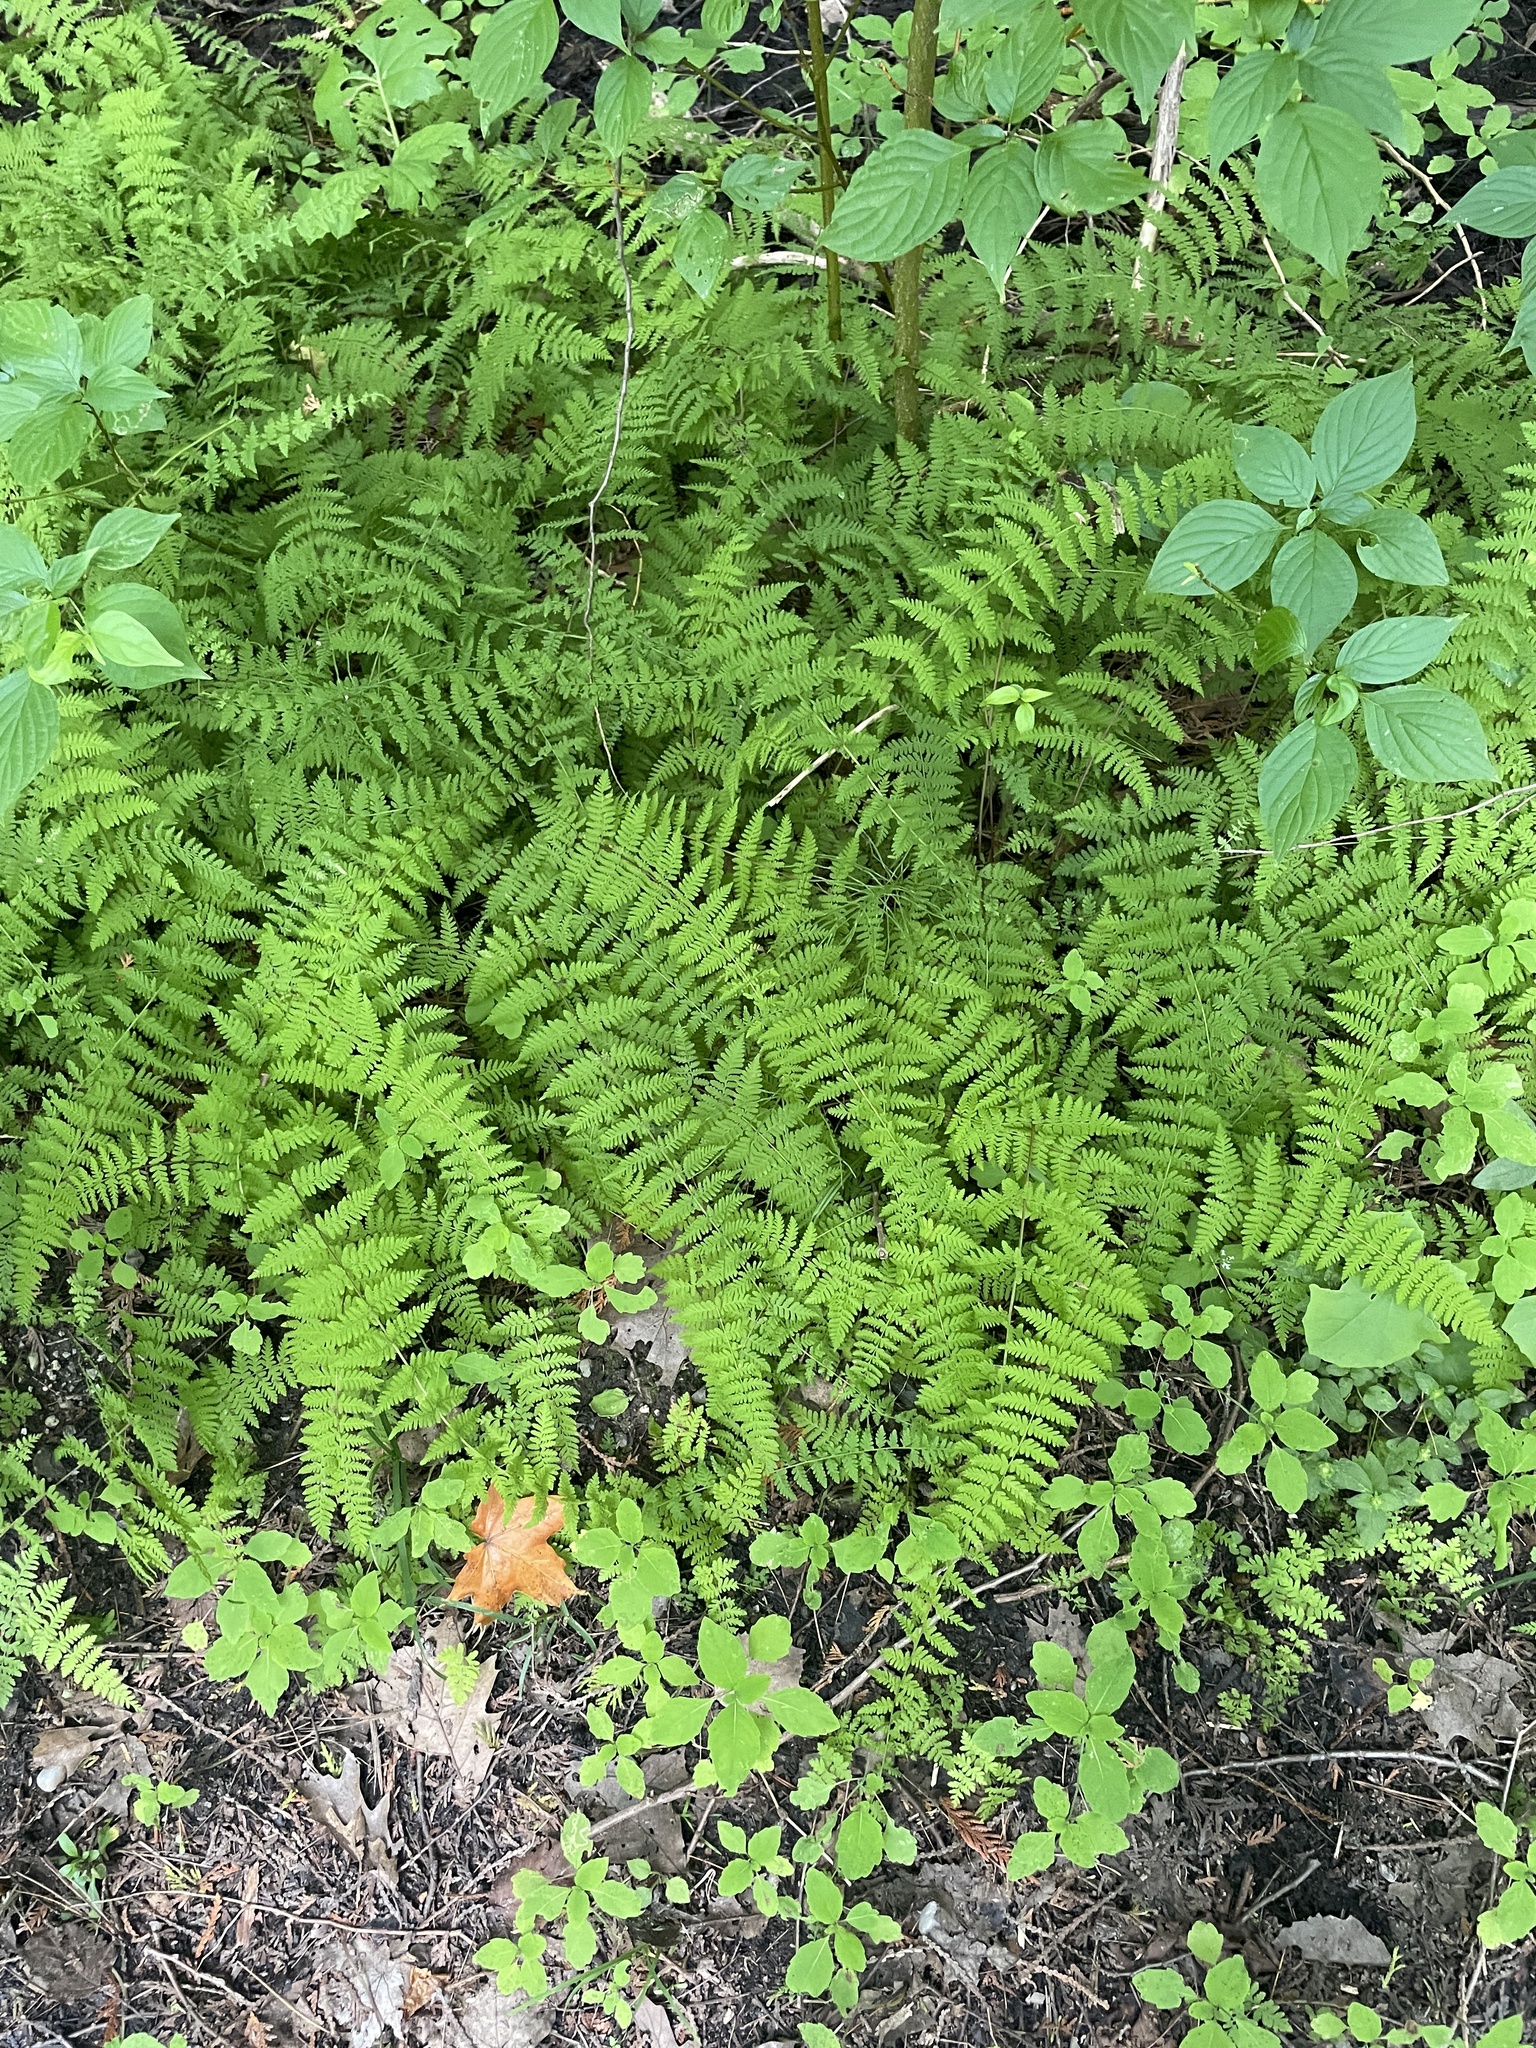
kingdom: Plantae
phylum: Tracheophyta
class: Polypodiopsida
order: Polypodiales
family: Cystopteridaceae
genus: Cystopteris
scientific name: Cystopteris bulbifera
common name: Bulblet bladder fern
